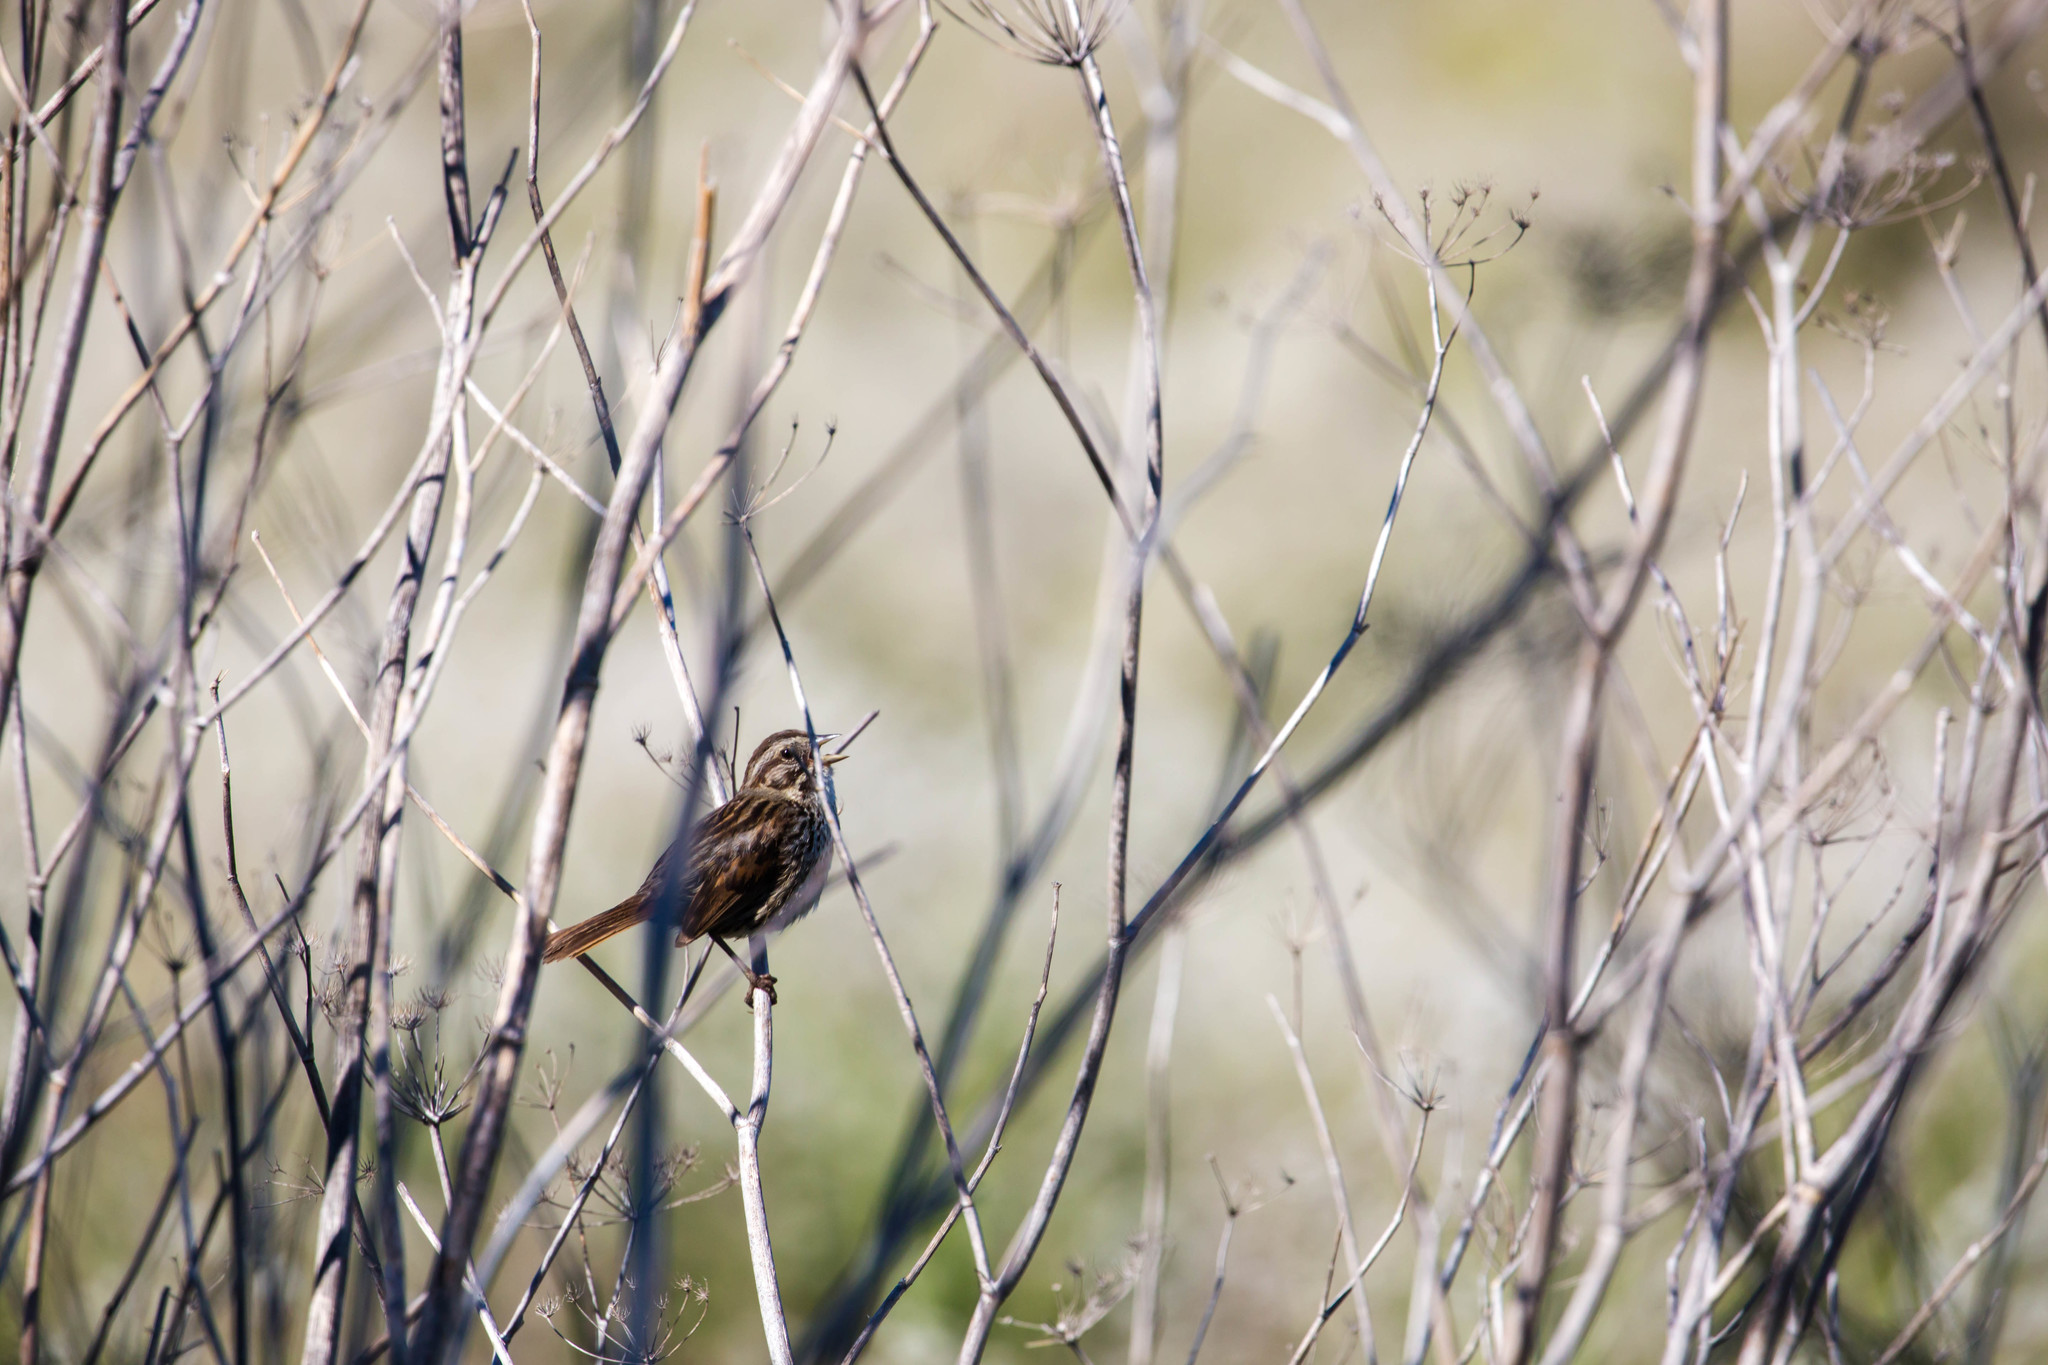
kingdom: Animalia
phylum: Chordata
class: Aves
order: Passeriformes
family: Passerellidae
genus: Melospiza
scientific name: Melospiza melodia
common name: Song sparrow
